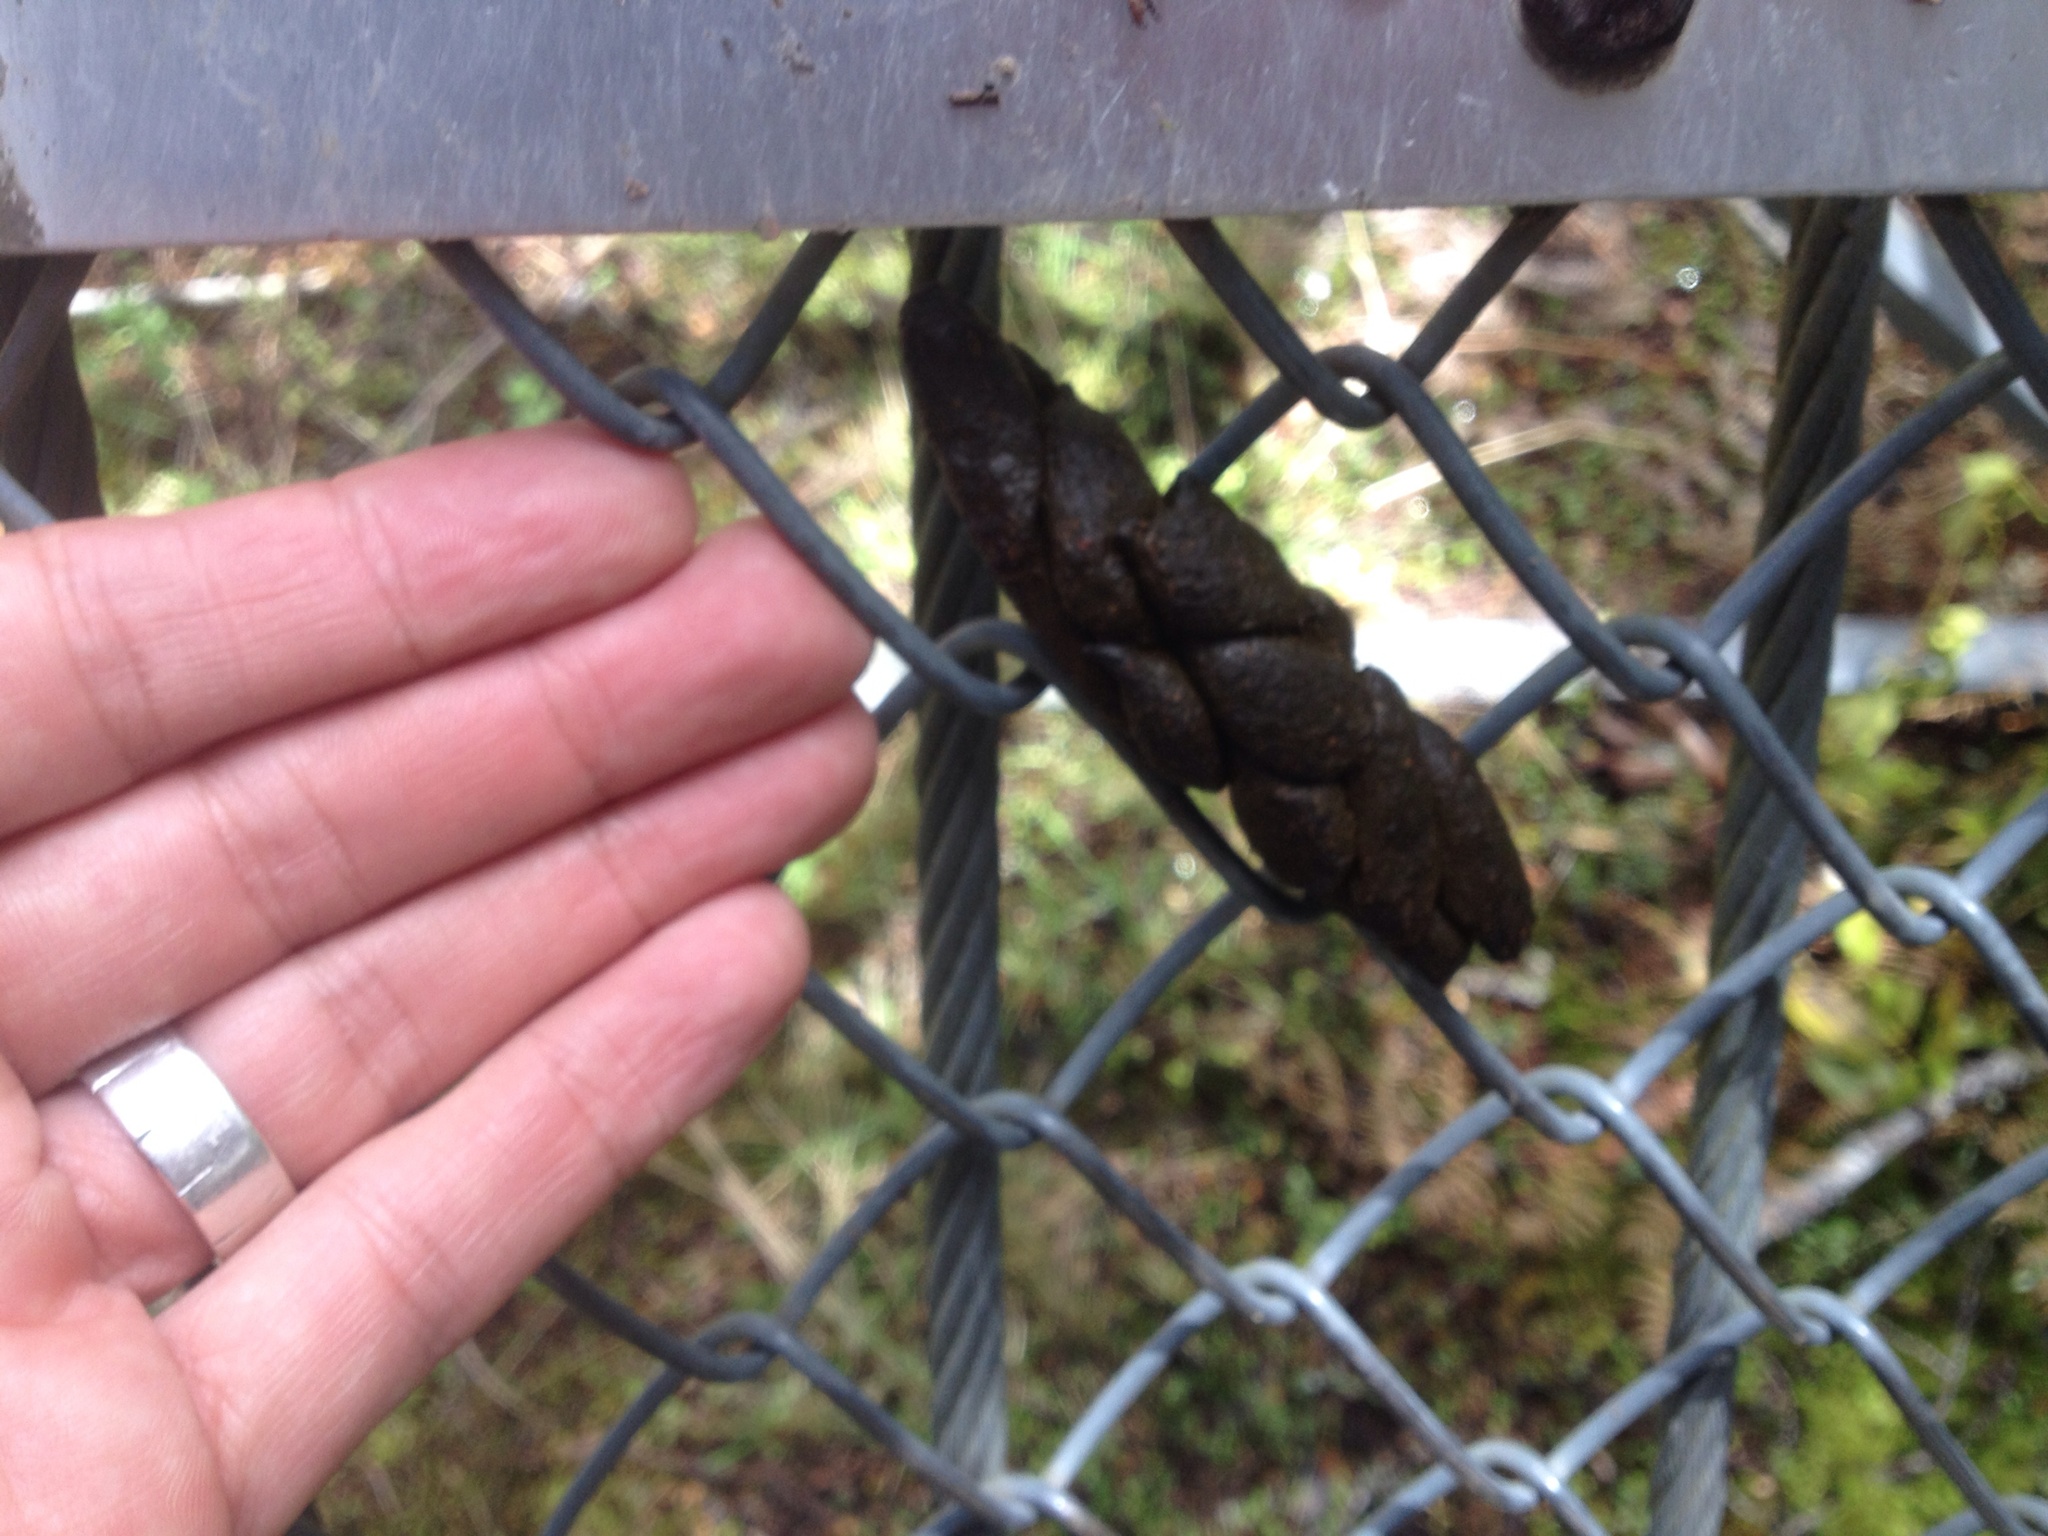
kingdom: Animalia
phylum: Chordata
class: Mammalia
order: Diprotodontia
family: Phalangeridae
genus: Trichosurus
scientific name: Trichosurus vulpecula
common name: Common brushtail
